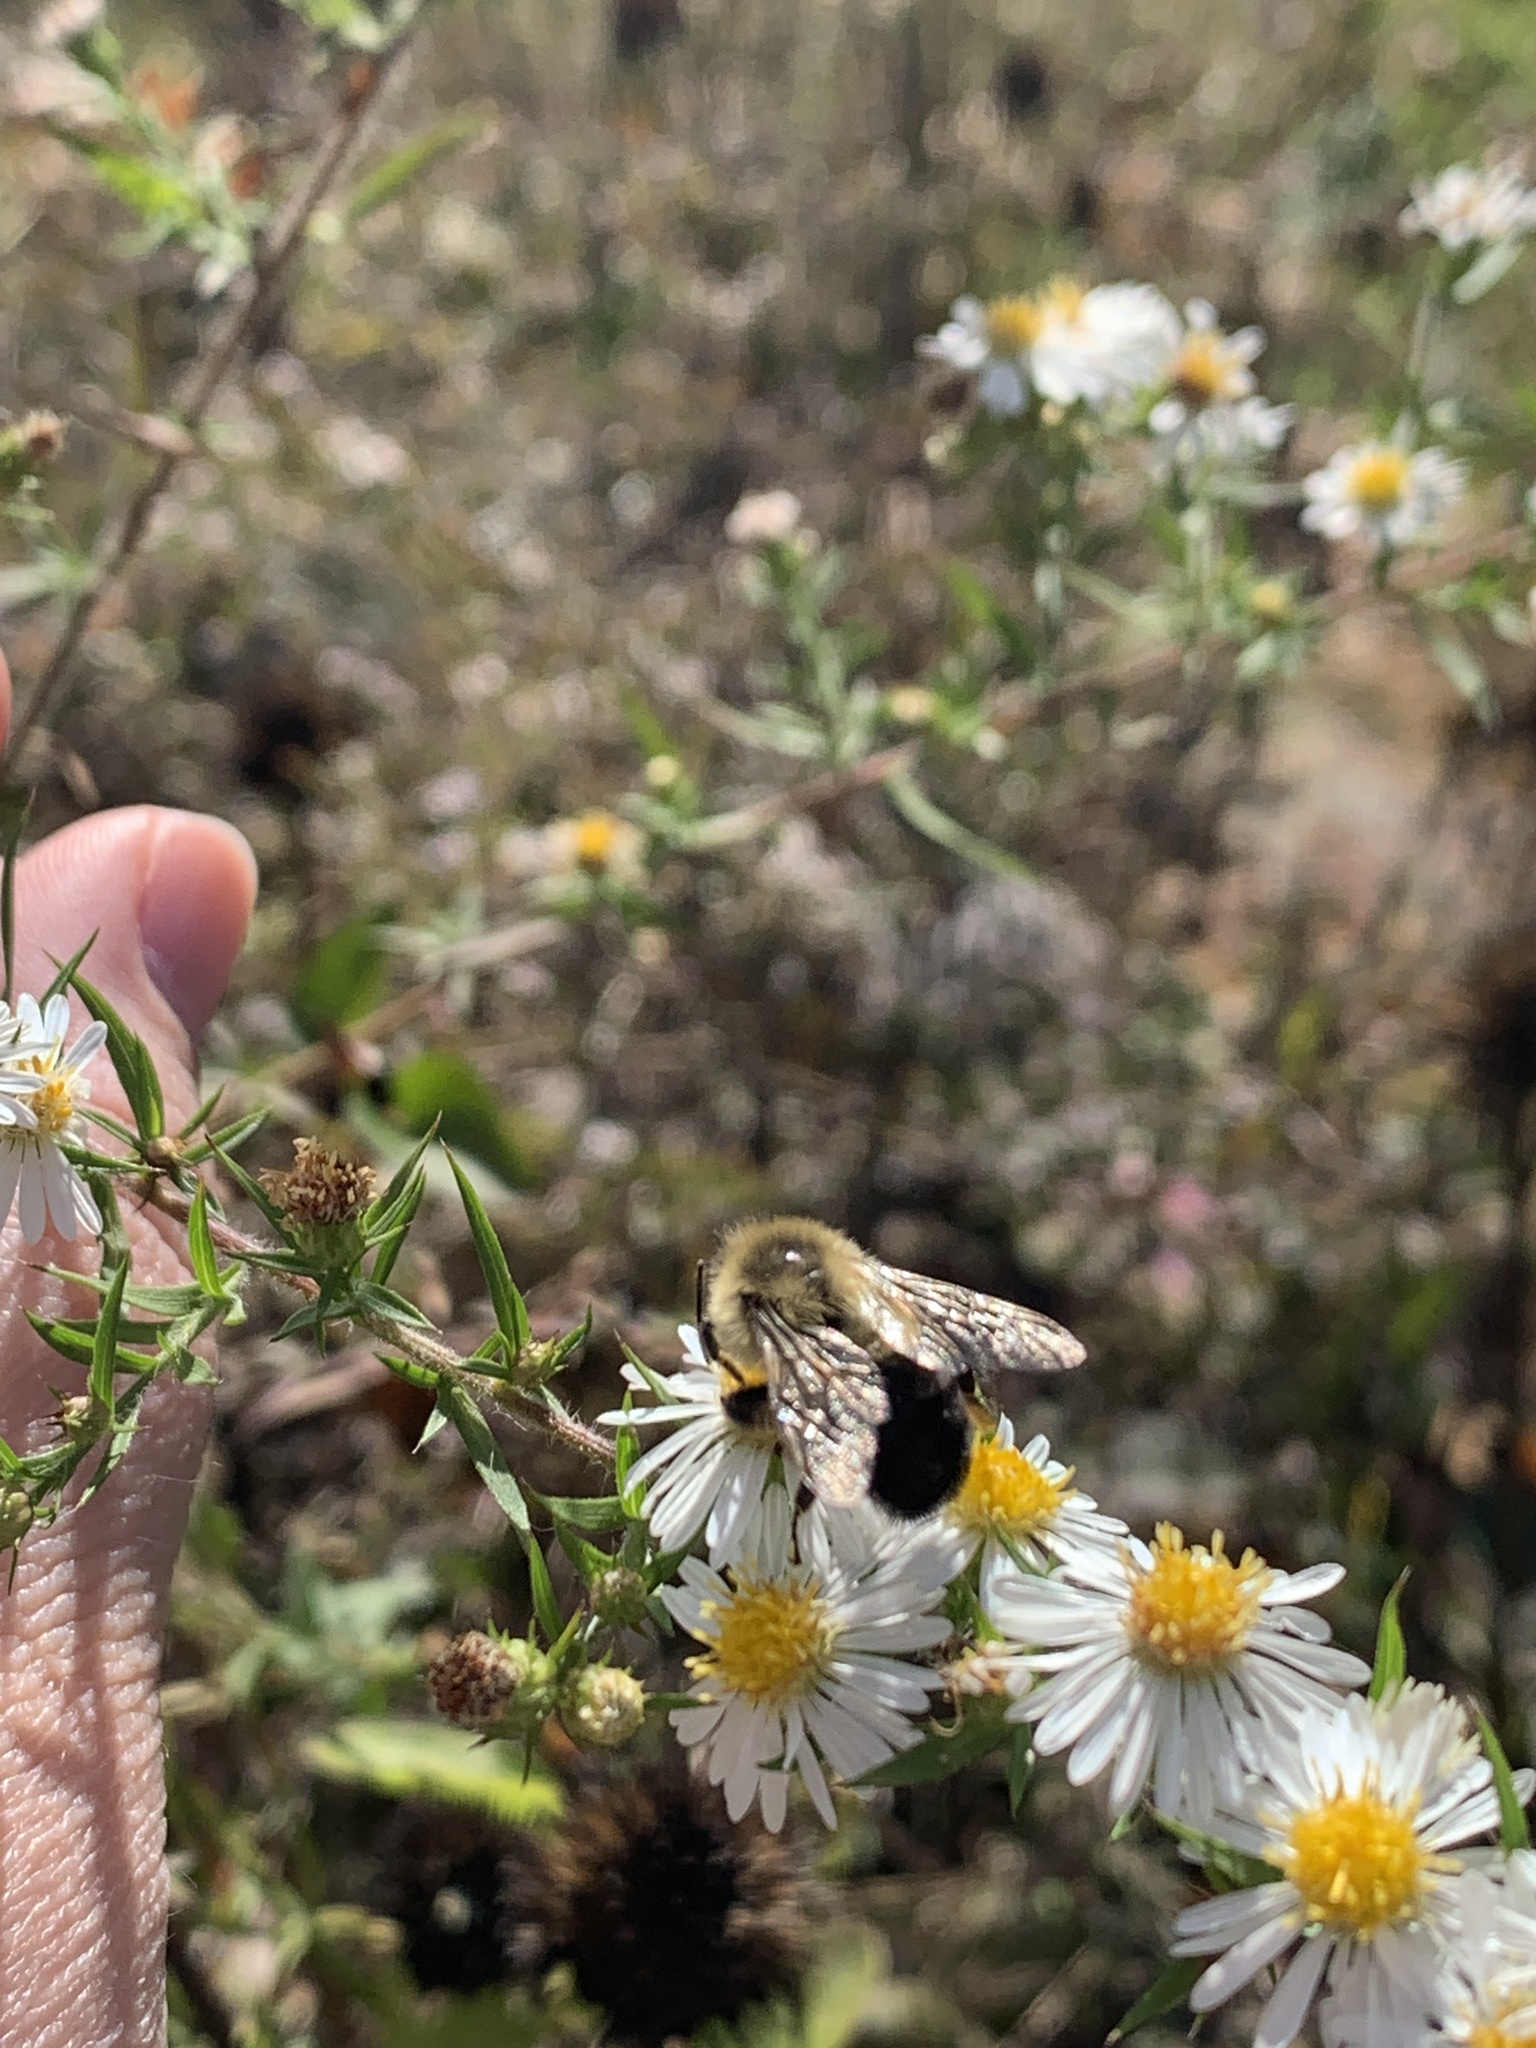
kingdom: Animalia
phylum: Arthropoda
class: Insecta
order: Hymenoptera
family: Apidae
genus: Bombus
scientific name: Bombus impatiens
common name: Common eastern bumble bee
